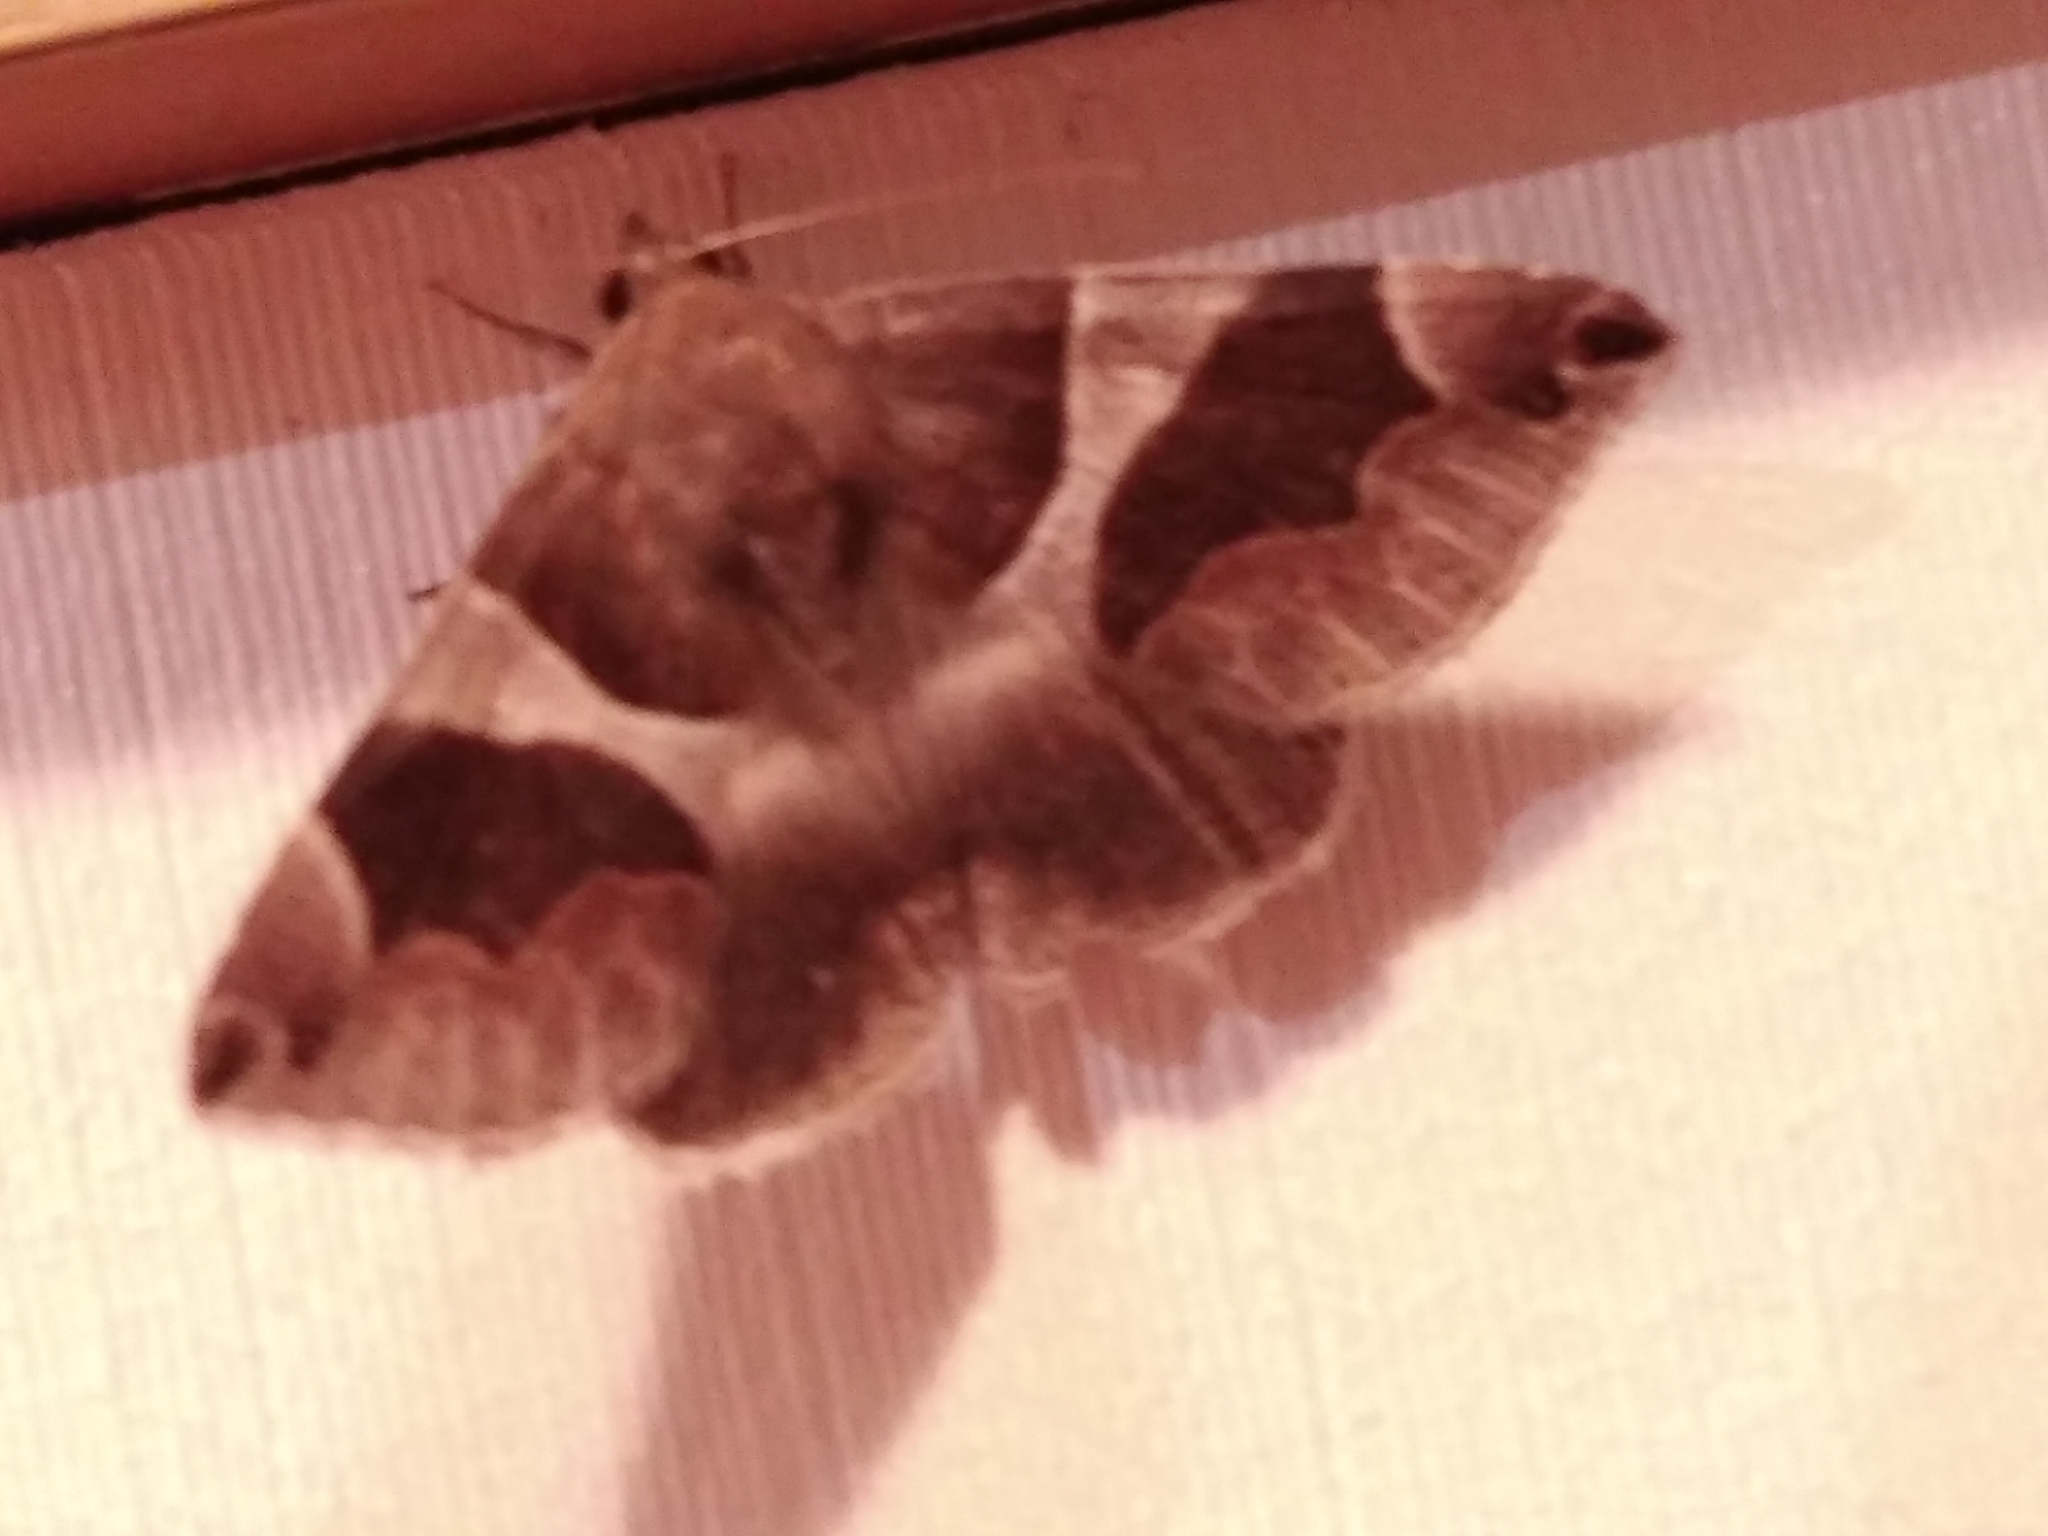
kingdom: Animalia
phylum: Arthropoda
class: Insecta
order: Lepidoptera
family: Erebidae
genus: Dysgonia
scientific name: Dysgonia algira
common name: Passenger
